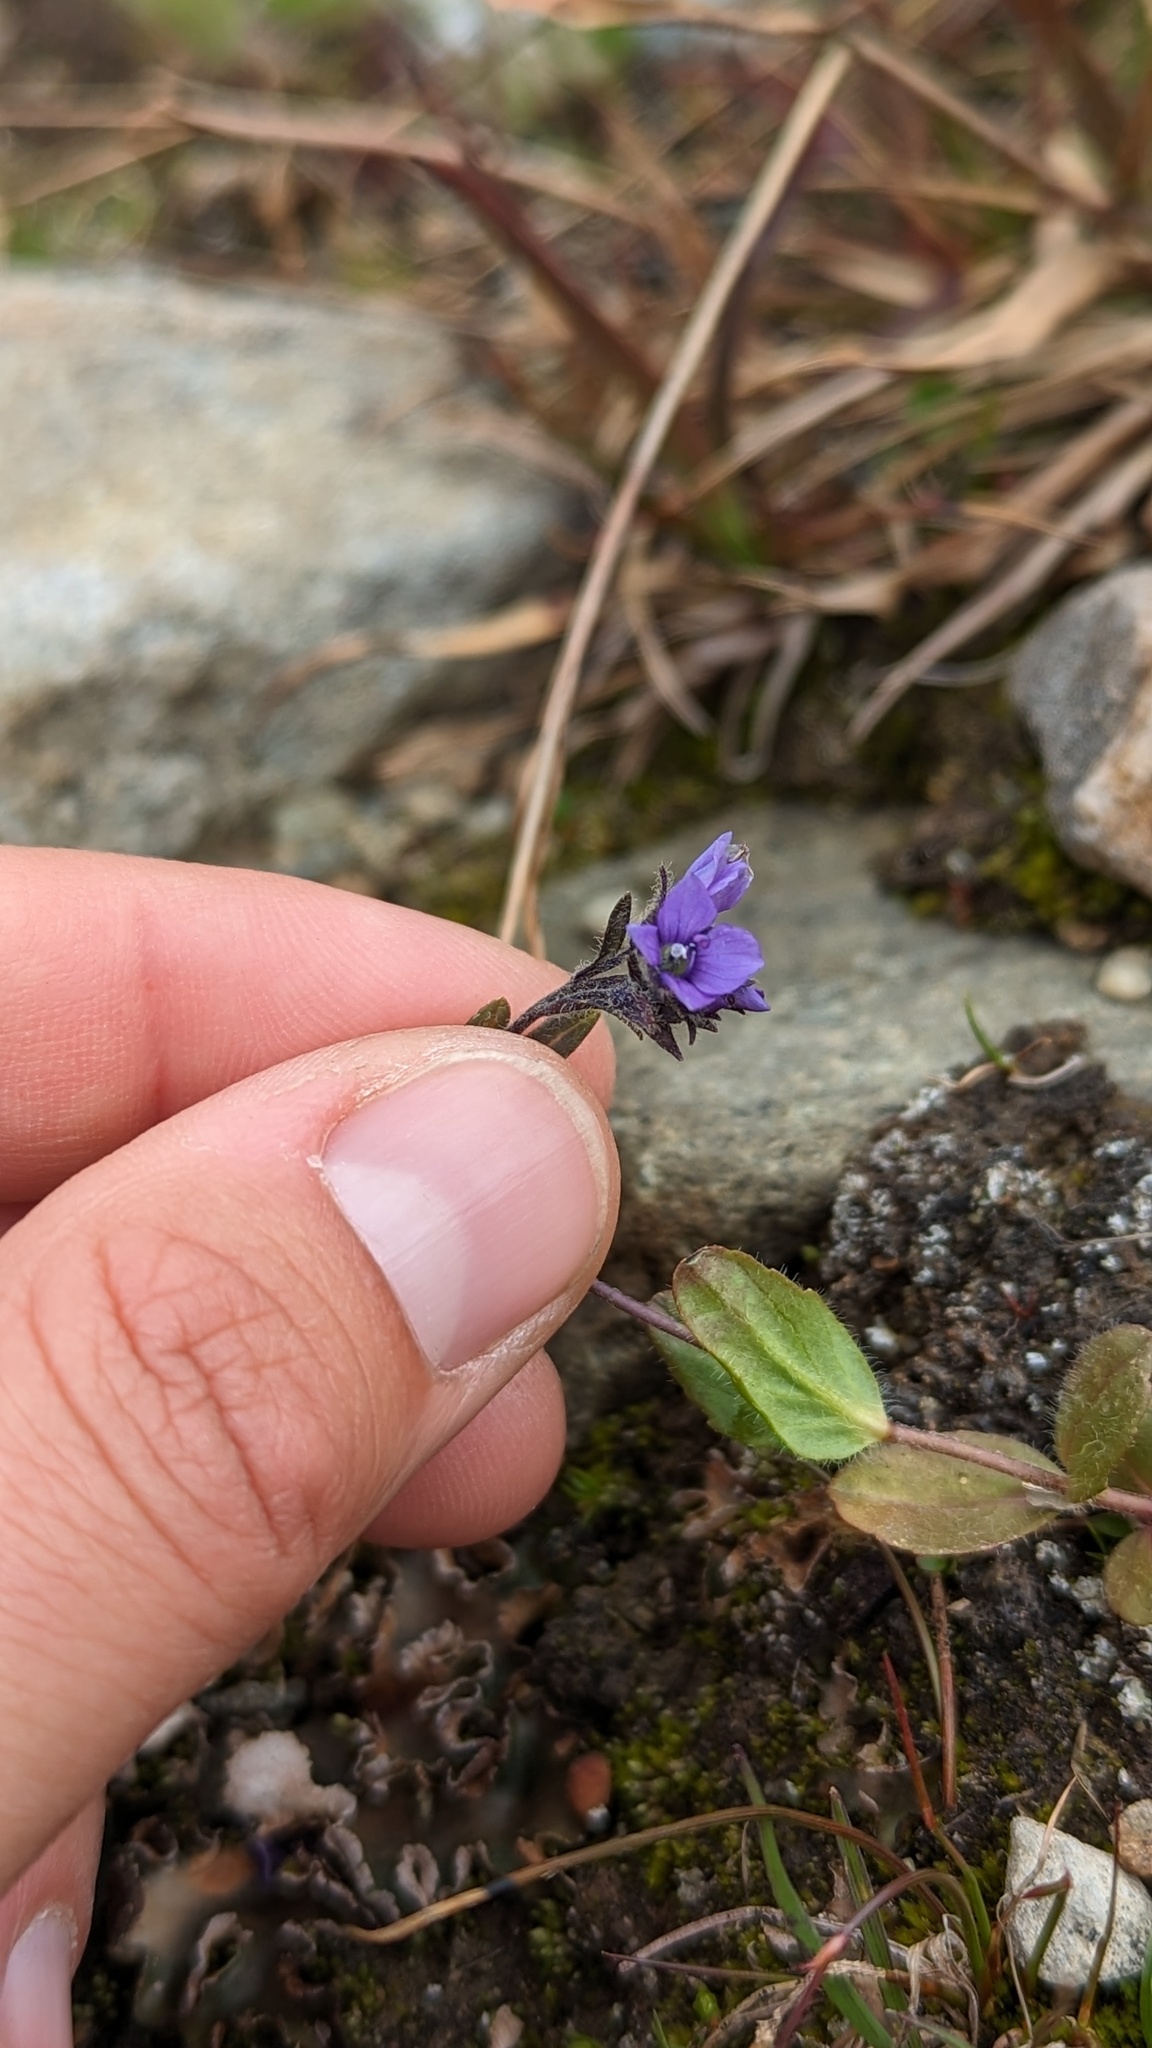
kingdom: Plantae
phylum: Tracheophyta
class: Magnoliopsida
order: Lamiales
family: Plantaginaceae
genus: Veronica
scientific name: Veronica wormskjoldii
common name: American alpine speedwell
